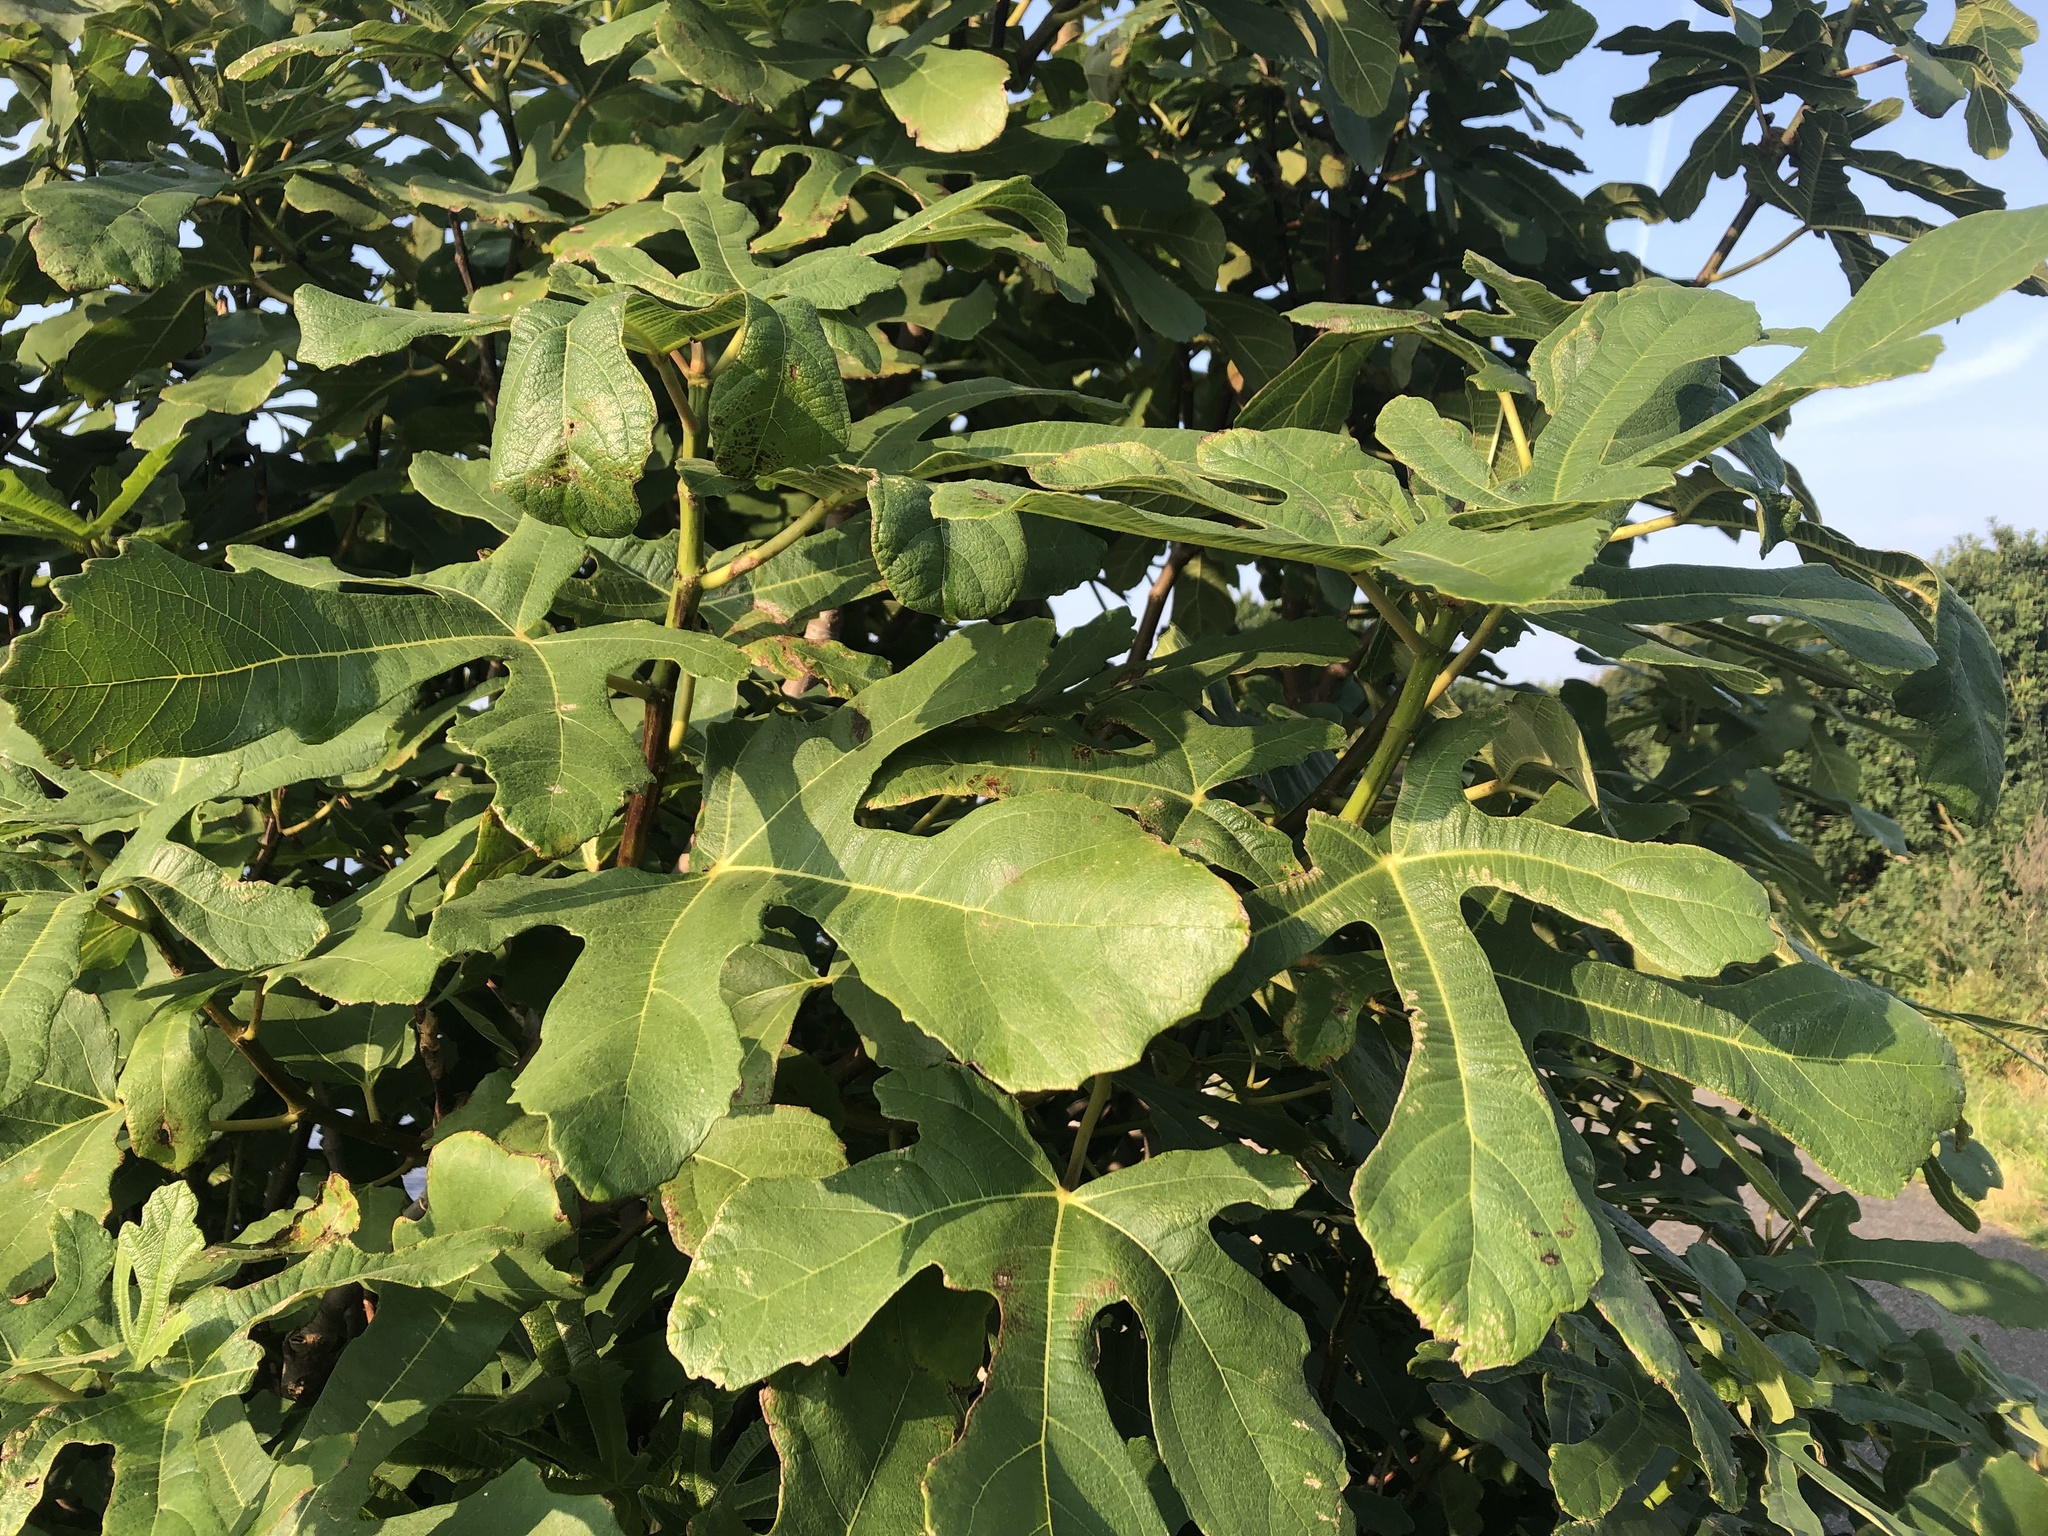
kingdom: Plantae
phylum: Tracheophyta
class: Magnoliopsida
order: Rosales
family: Moraceae
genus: Ficus
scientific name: Ficus carica
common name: Fig
